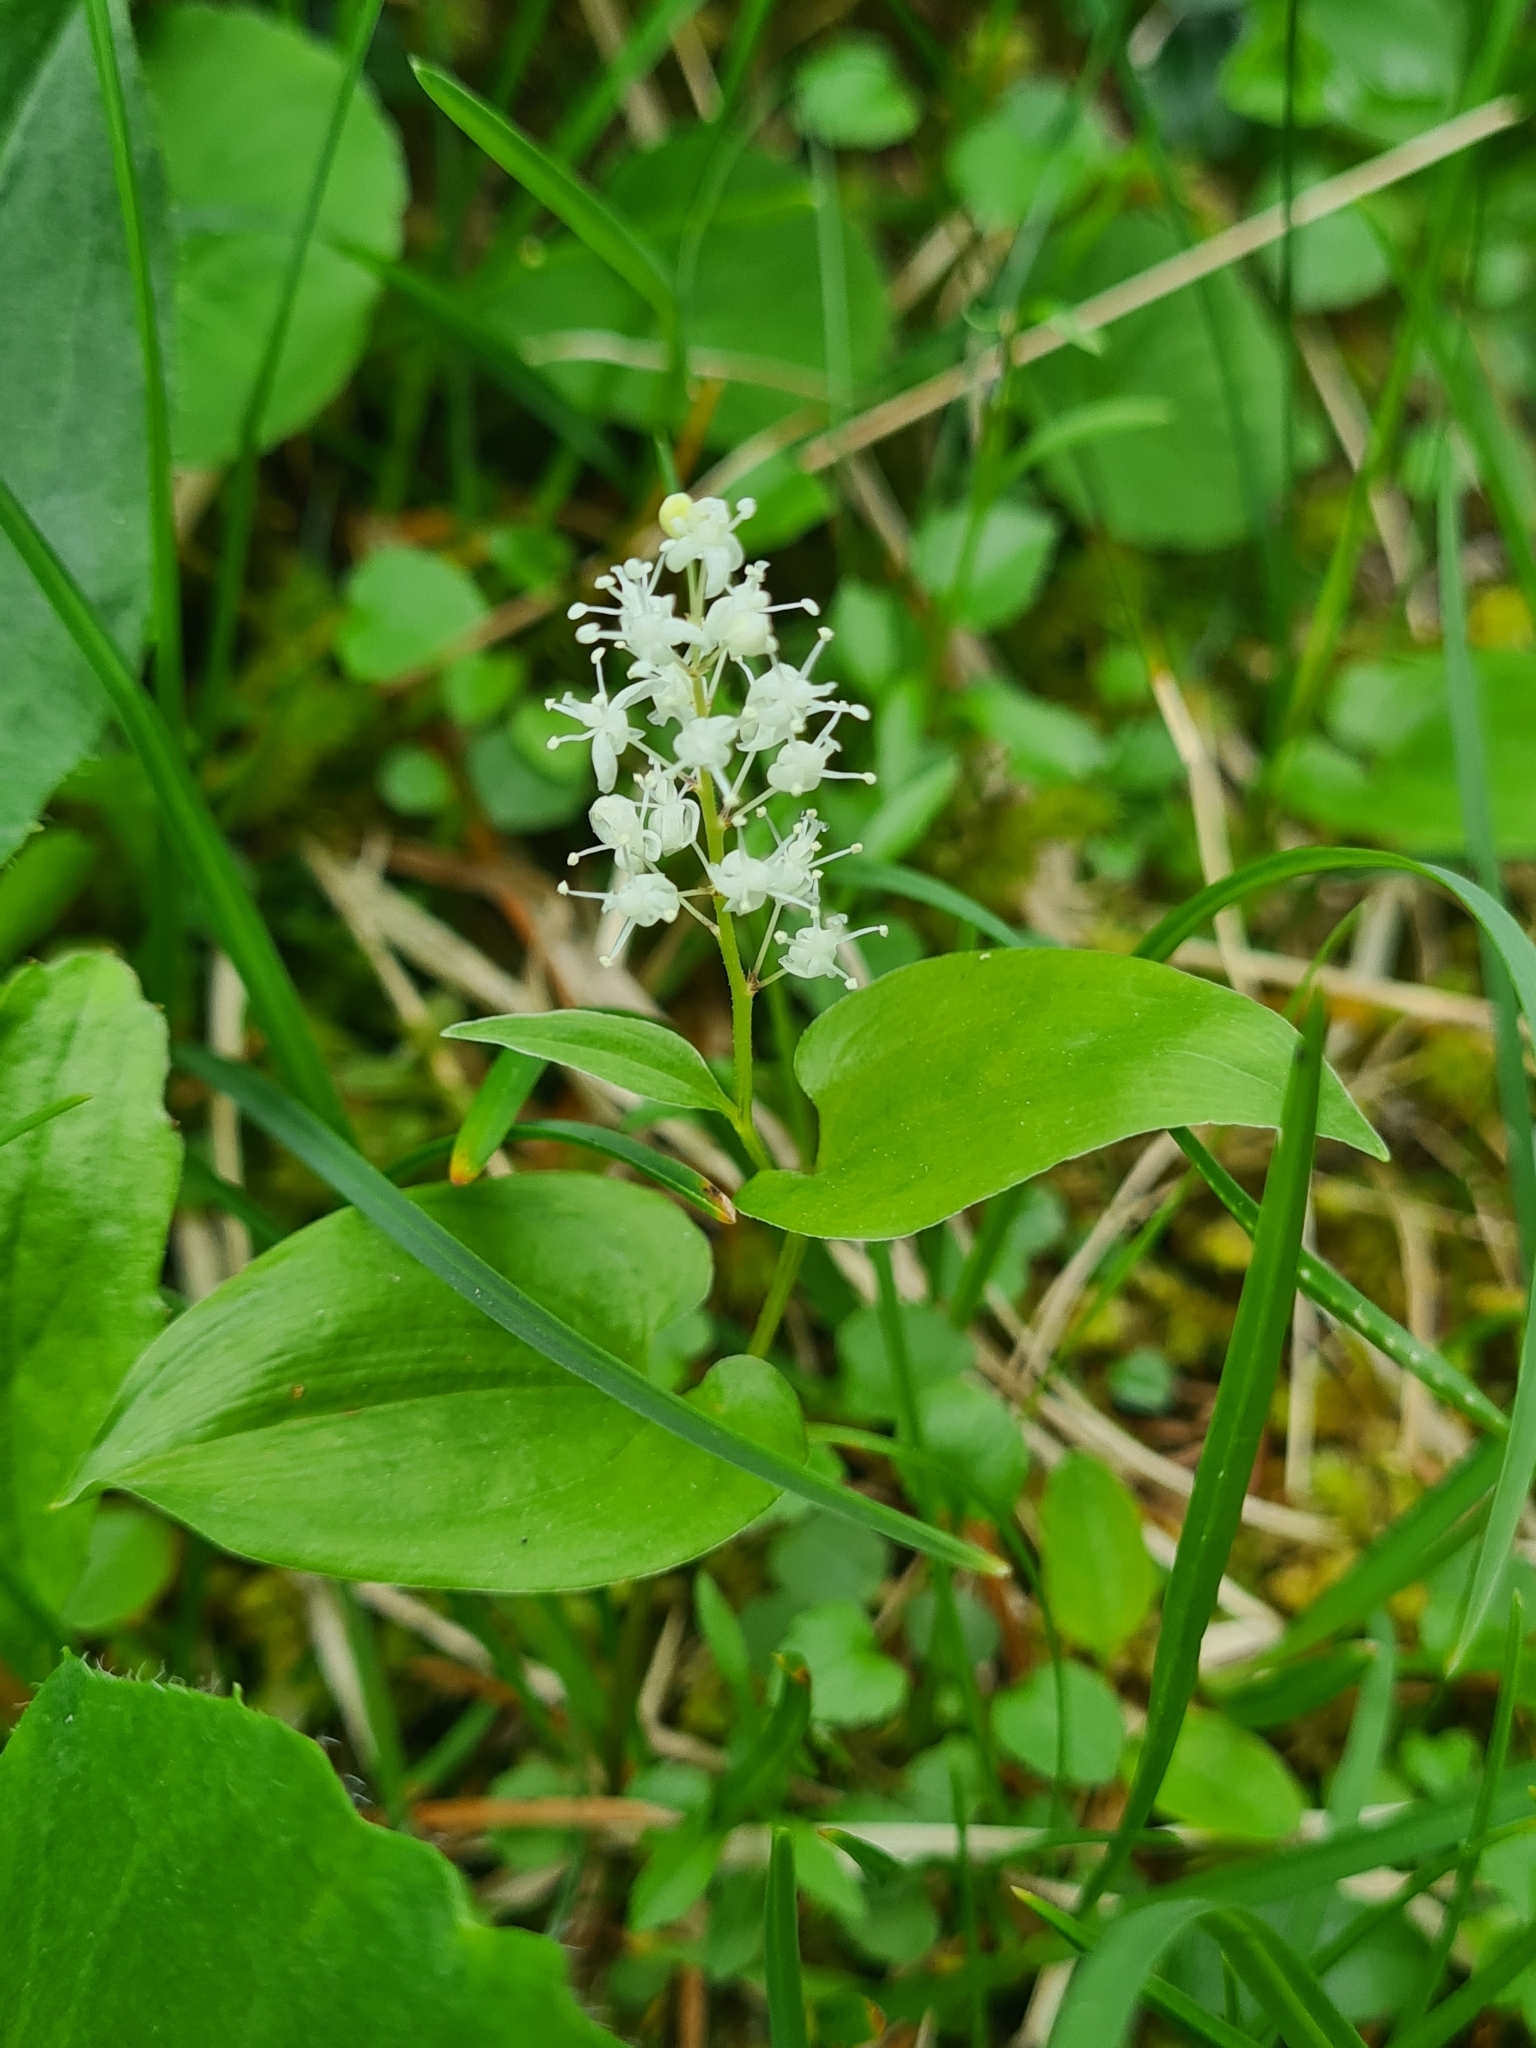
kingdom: Plantae
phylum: Tracheophyta
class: Liliopsida
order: Asparagales
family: Asparagaceae
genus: Maianthemum
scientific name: Maianthemum bifolium
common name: May lily
